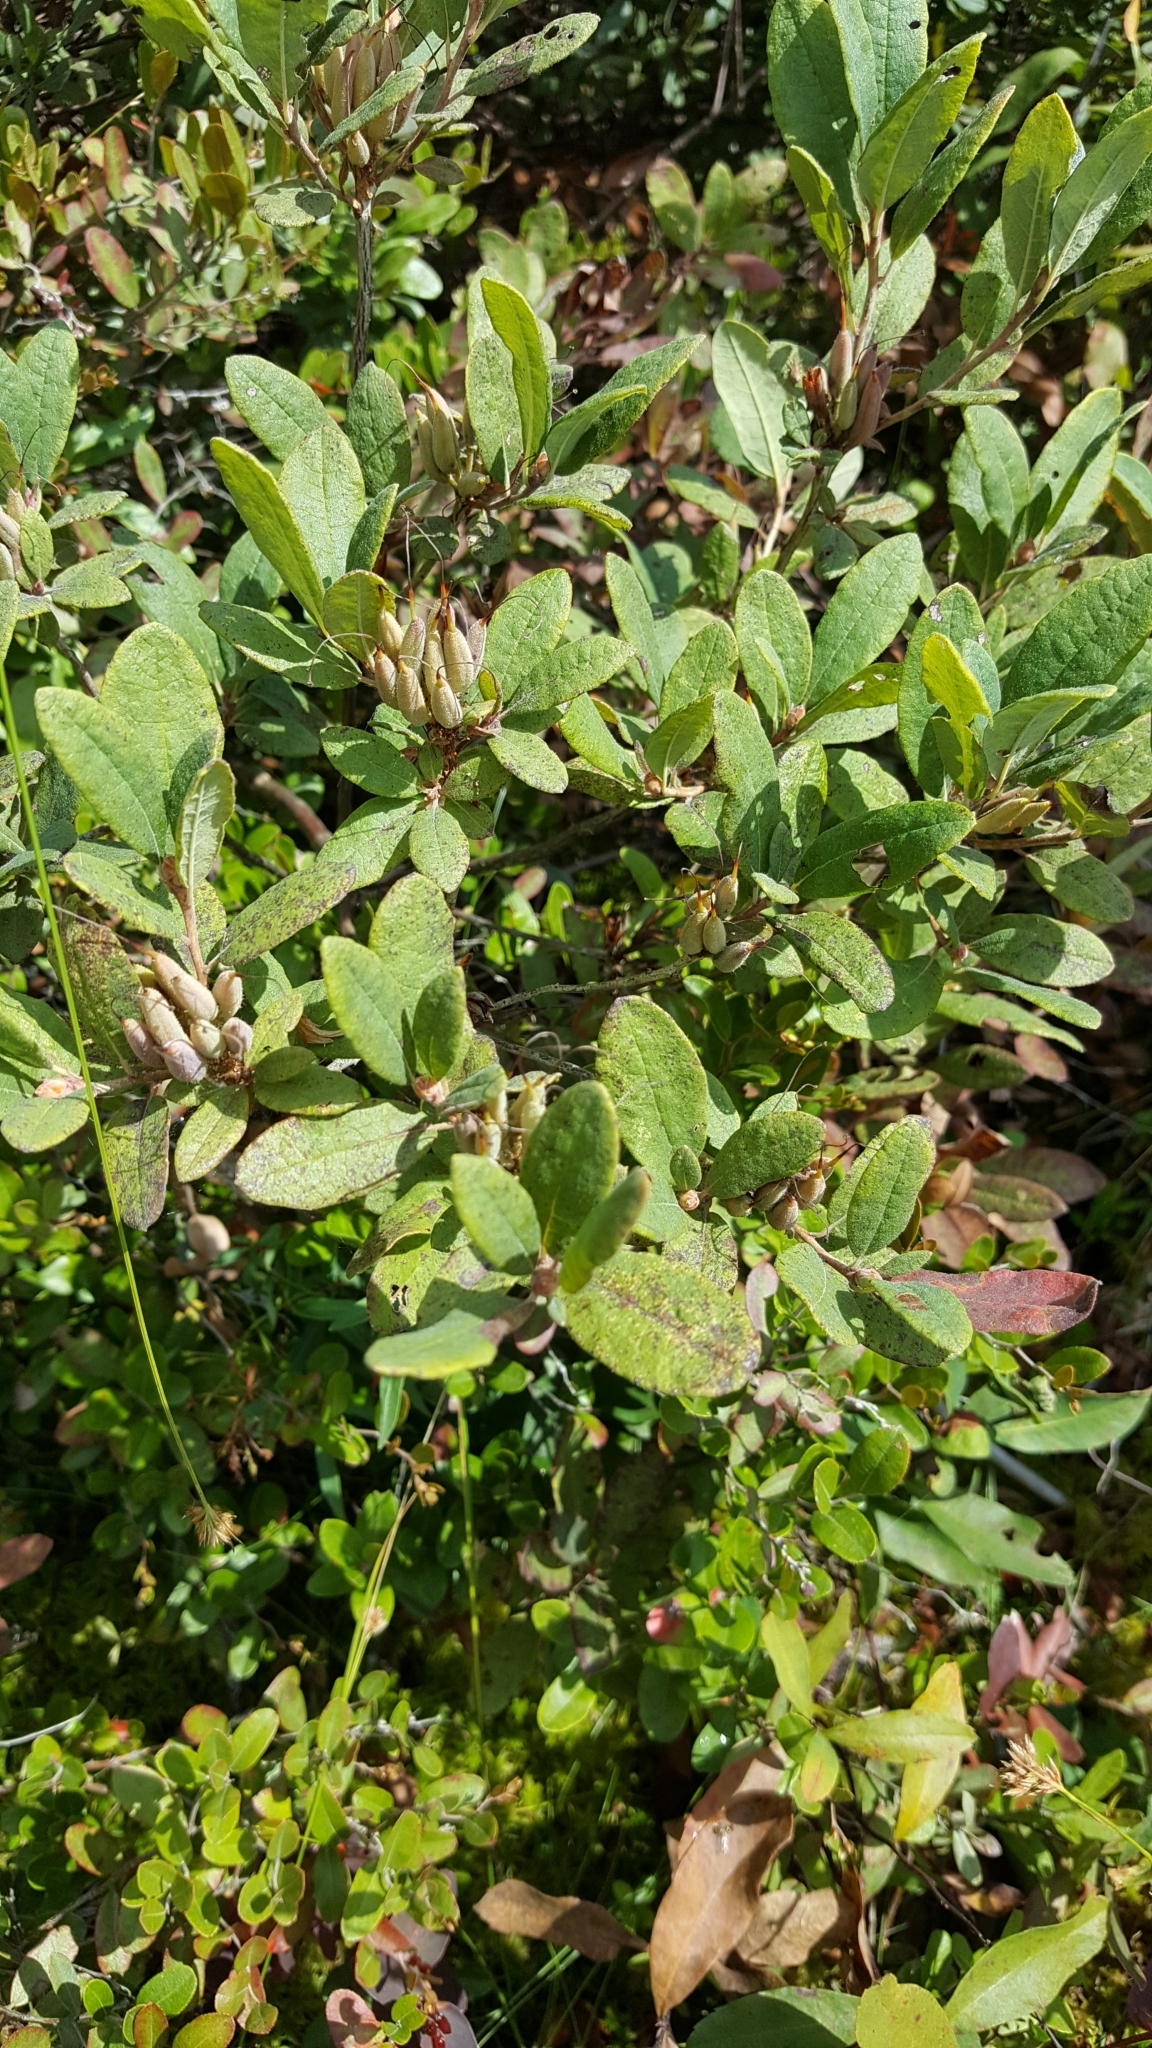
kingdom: Plantae
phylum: Tracheophyta
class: Magnoliopsida
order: Ericales
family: Ericaceae
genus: Rhododendron
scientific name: Rhododendron canadense
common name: Rhodora
